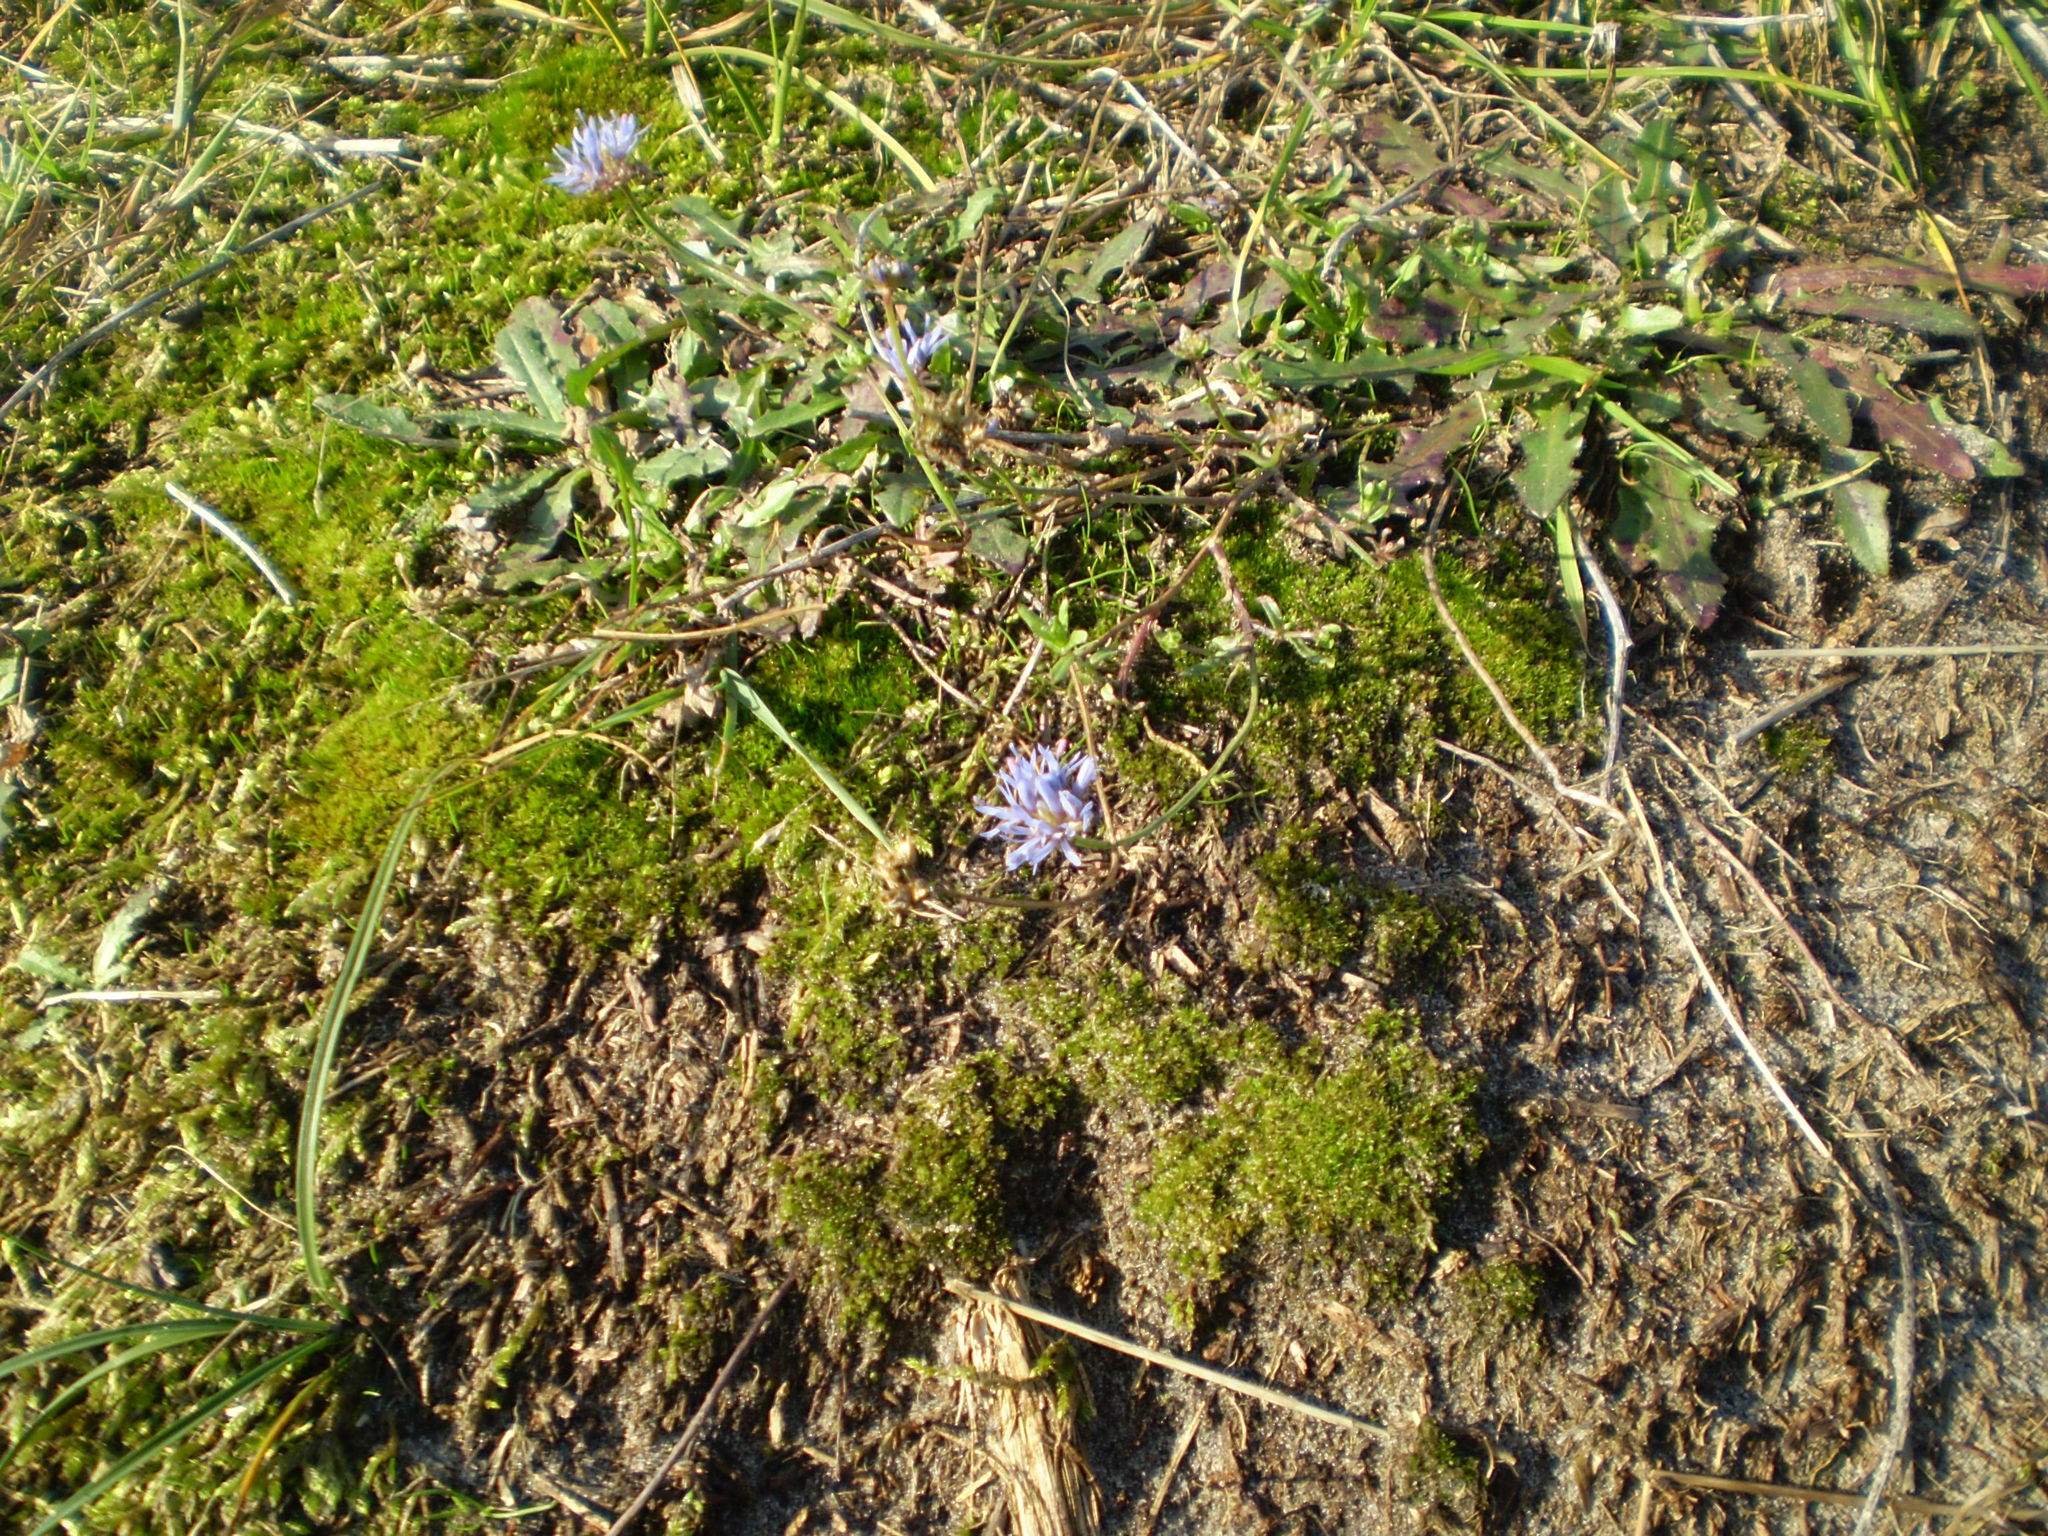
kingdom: Plantae
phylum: Tracheophyta
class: Magnoliopsida
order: Asterales
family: Campanulaceae
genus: Jasione
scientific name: Jasione montana
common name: Sheep's-bit
